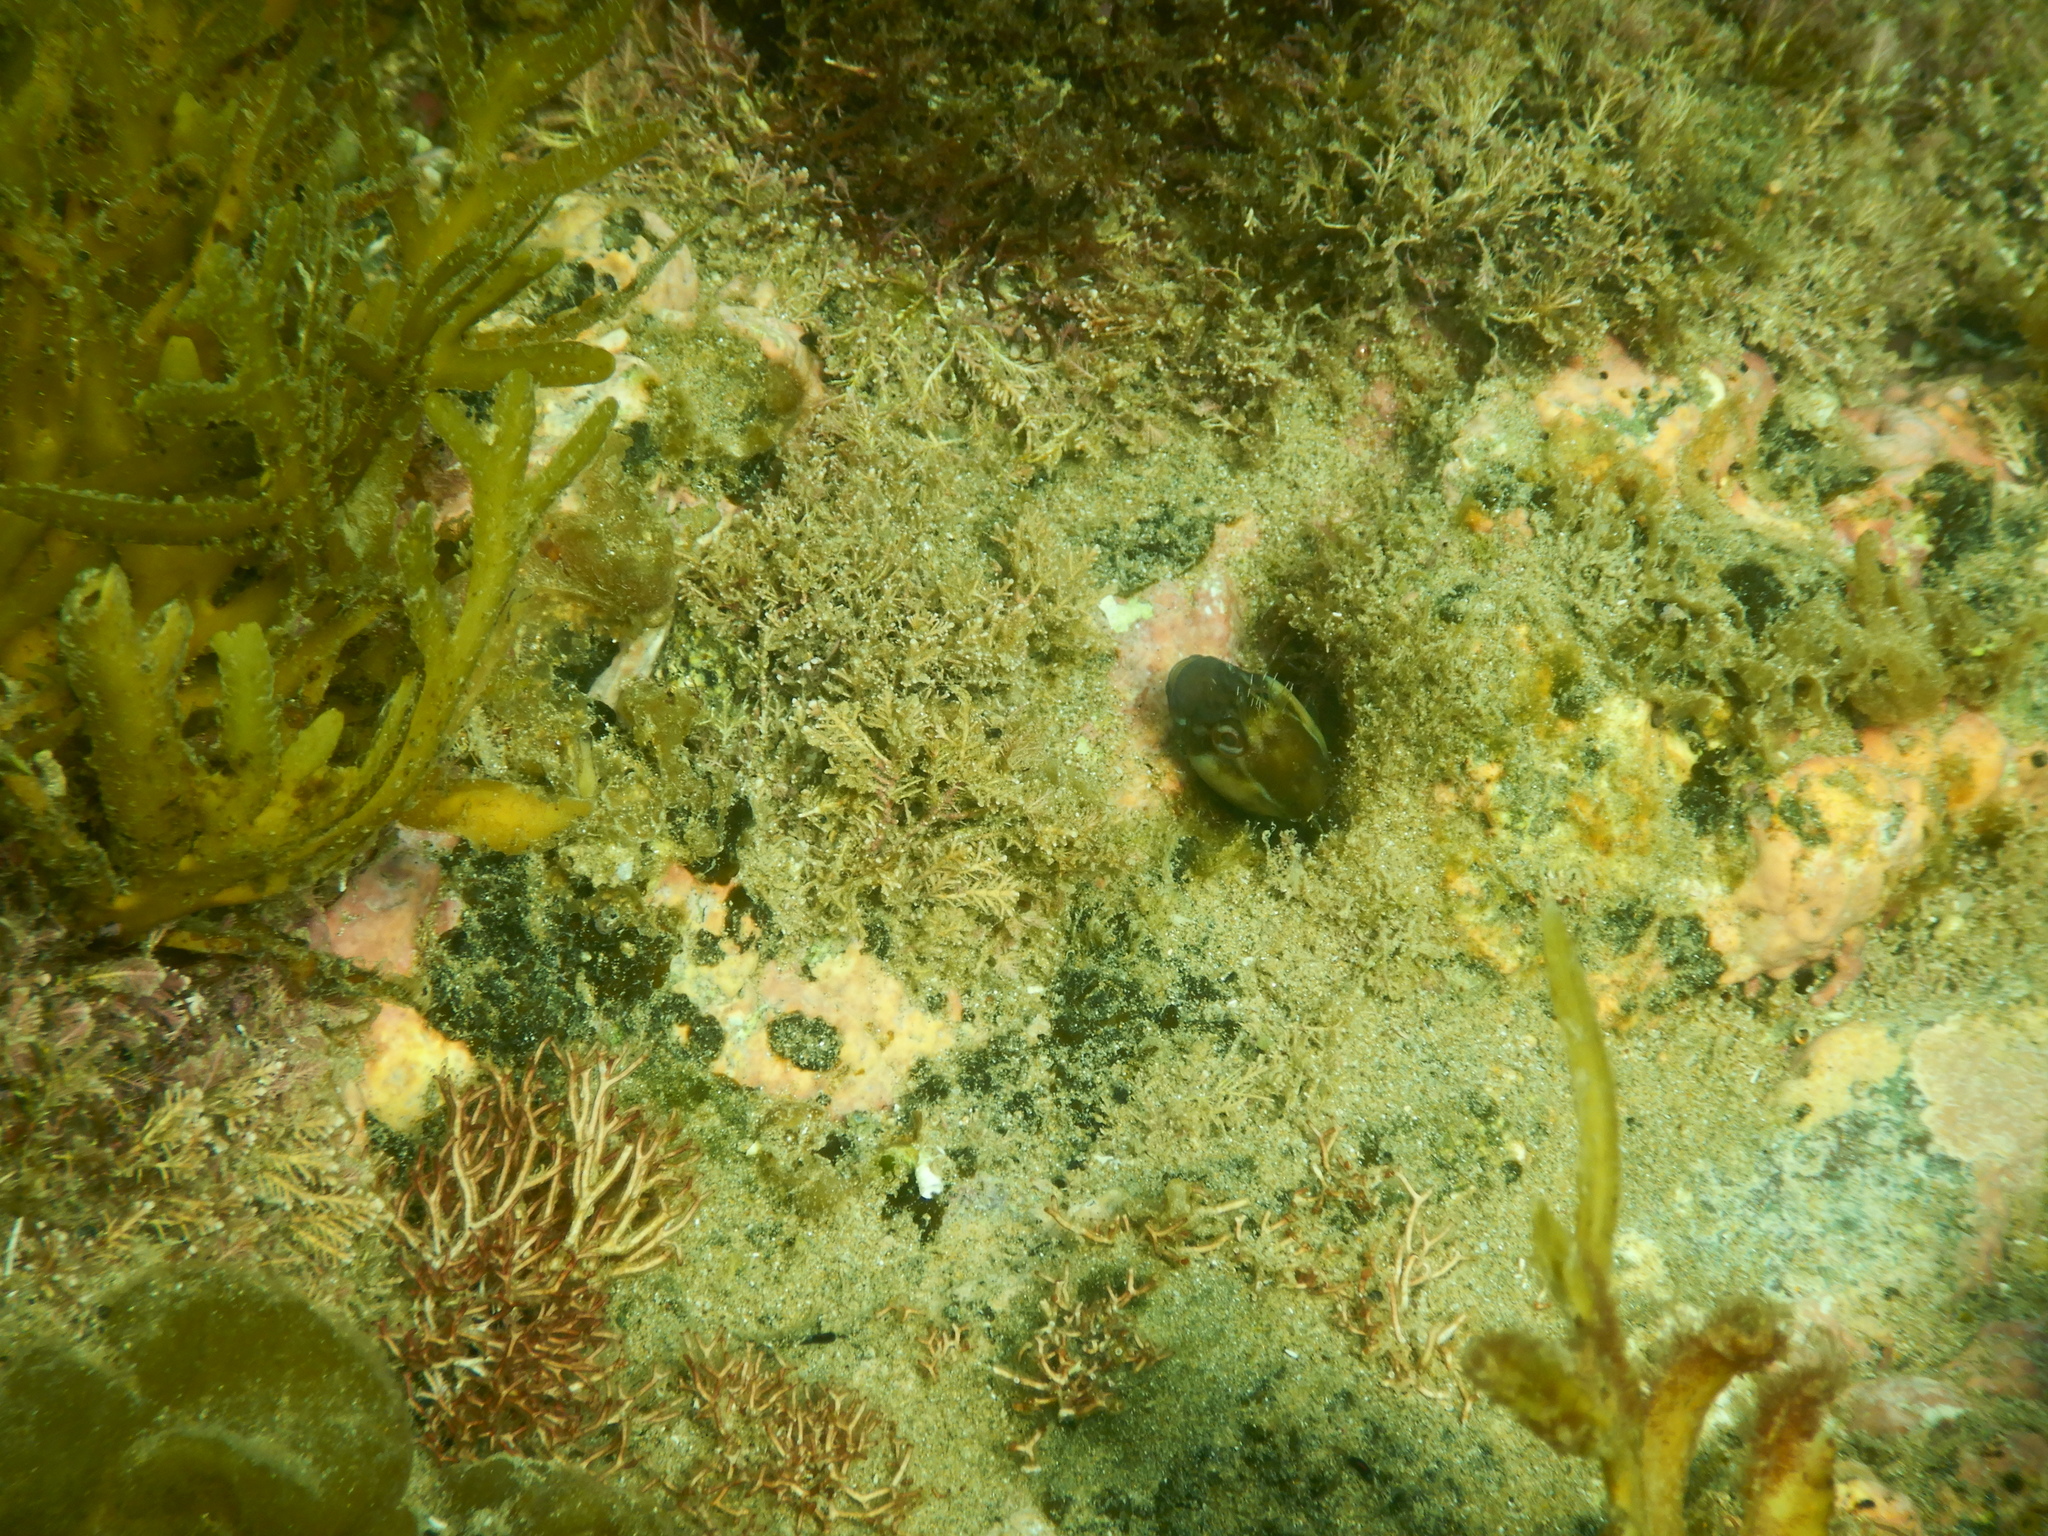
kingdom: Animalia
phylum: Chordata
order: Perciformes
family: Blenniidae
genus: Parablennius
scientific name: Parablennius laticlavius
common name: Crested blenny
